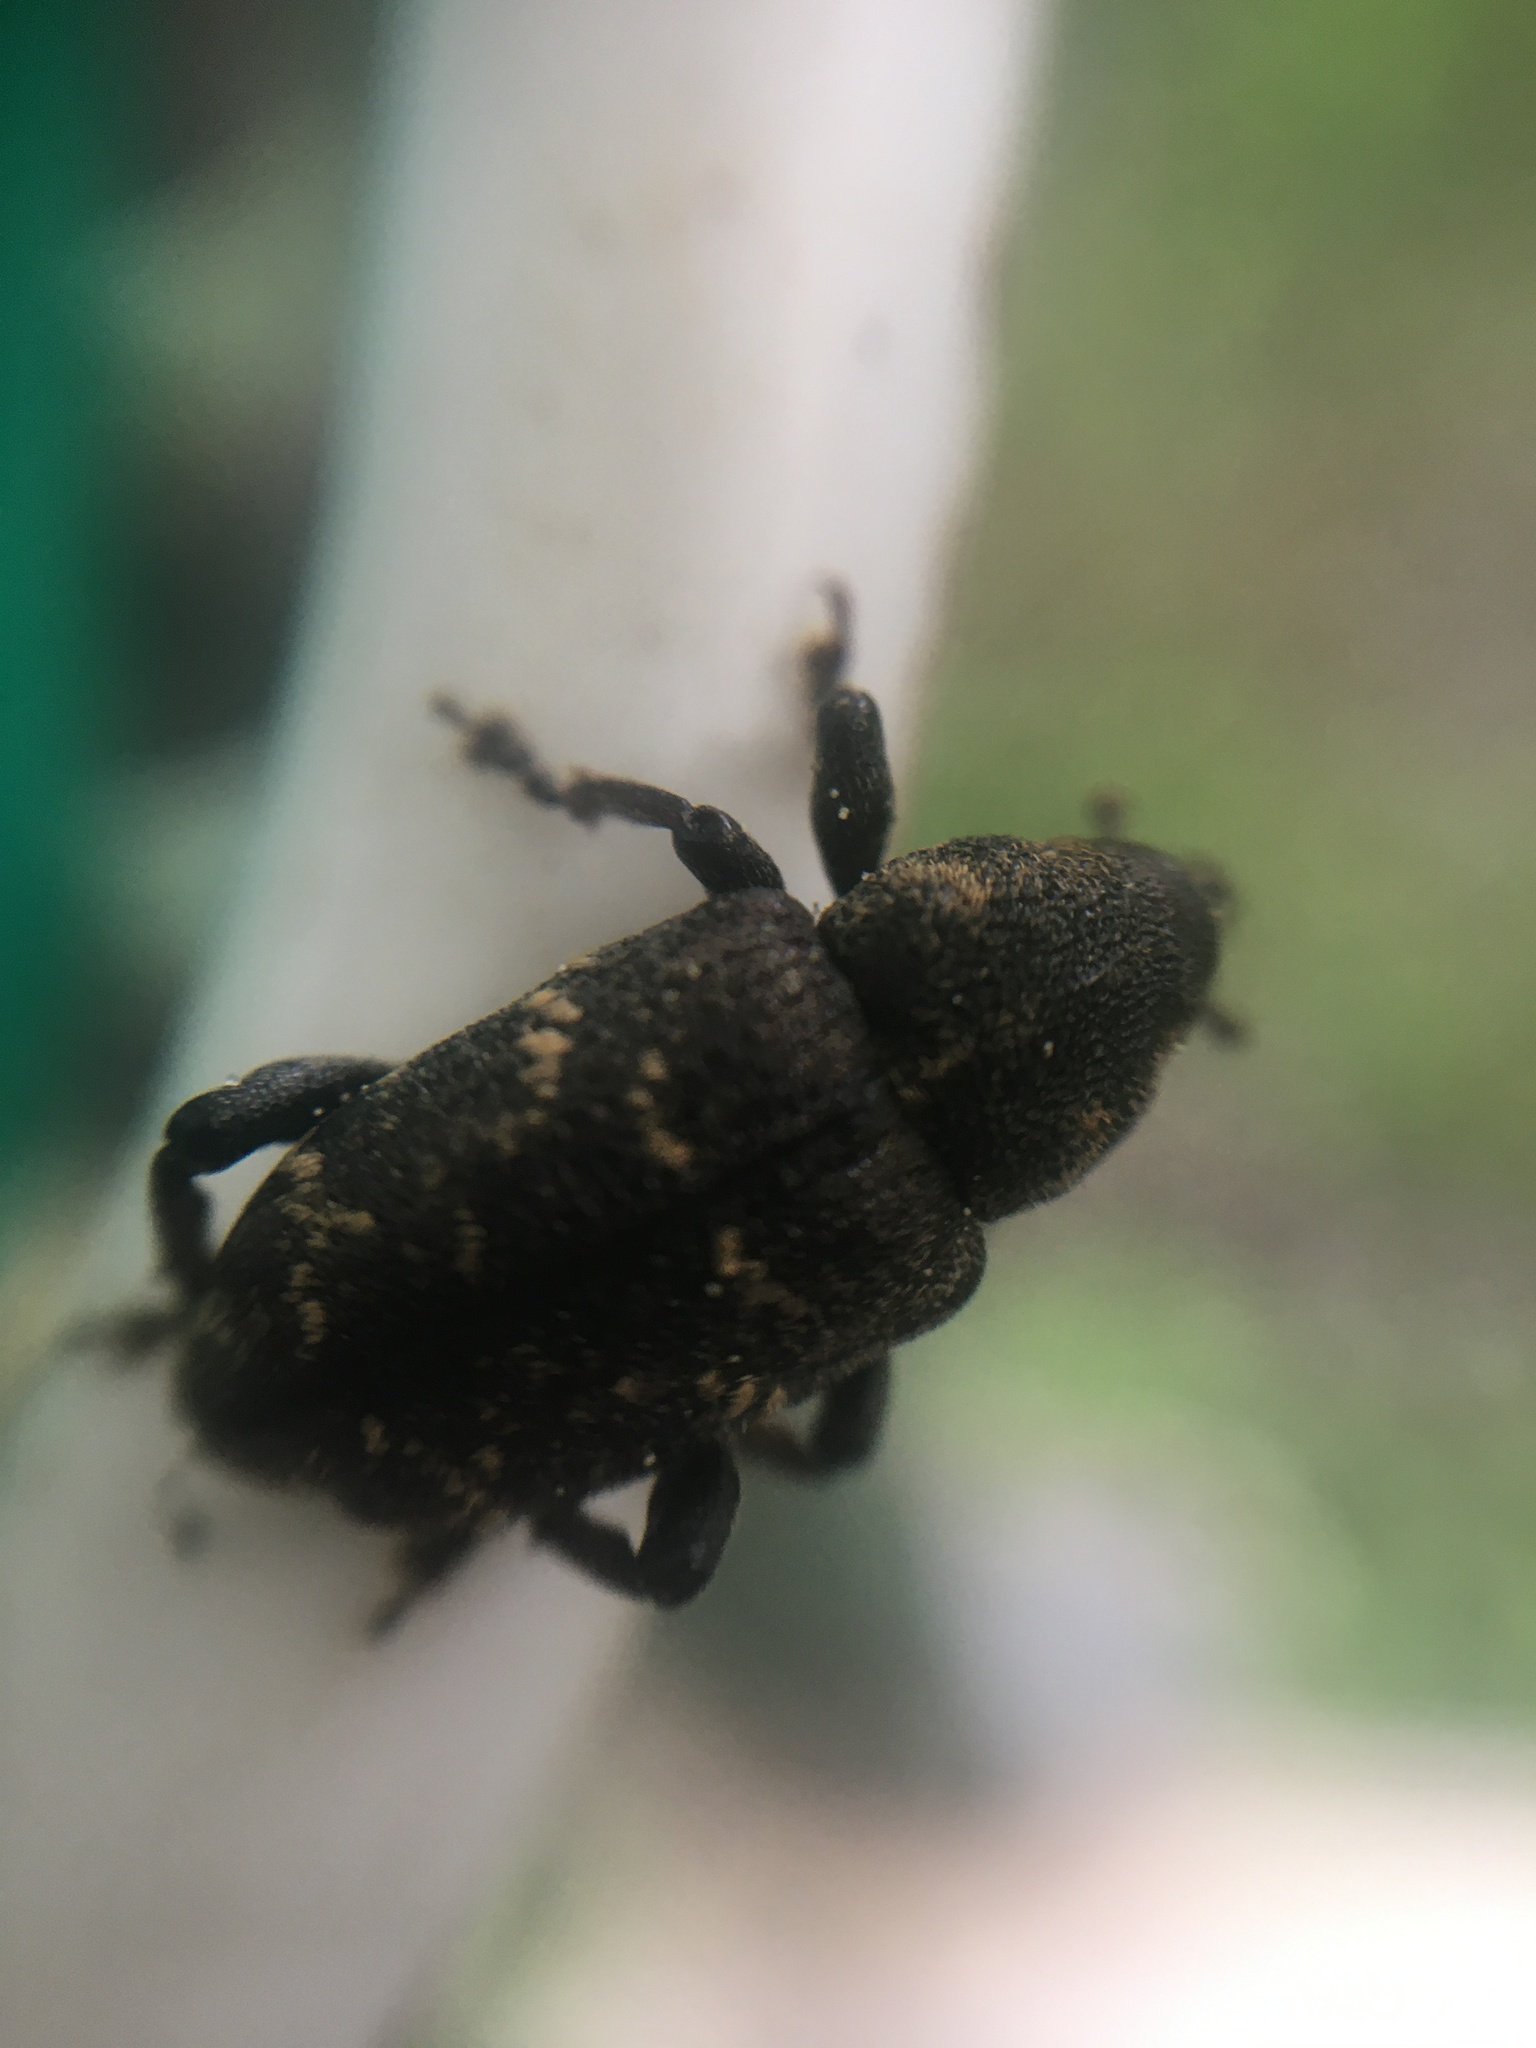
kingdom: Animalia
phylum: Arthropoda
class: Insecta
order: Coleoptera
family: Curculionidae
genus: Hylobius
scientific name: Hylobius abietis
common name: Large pine weevil
